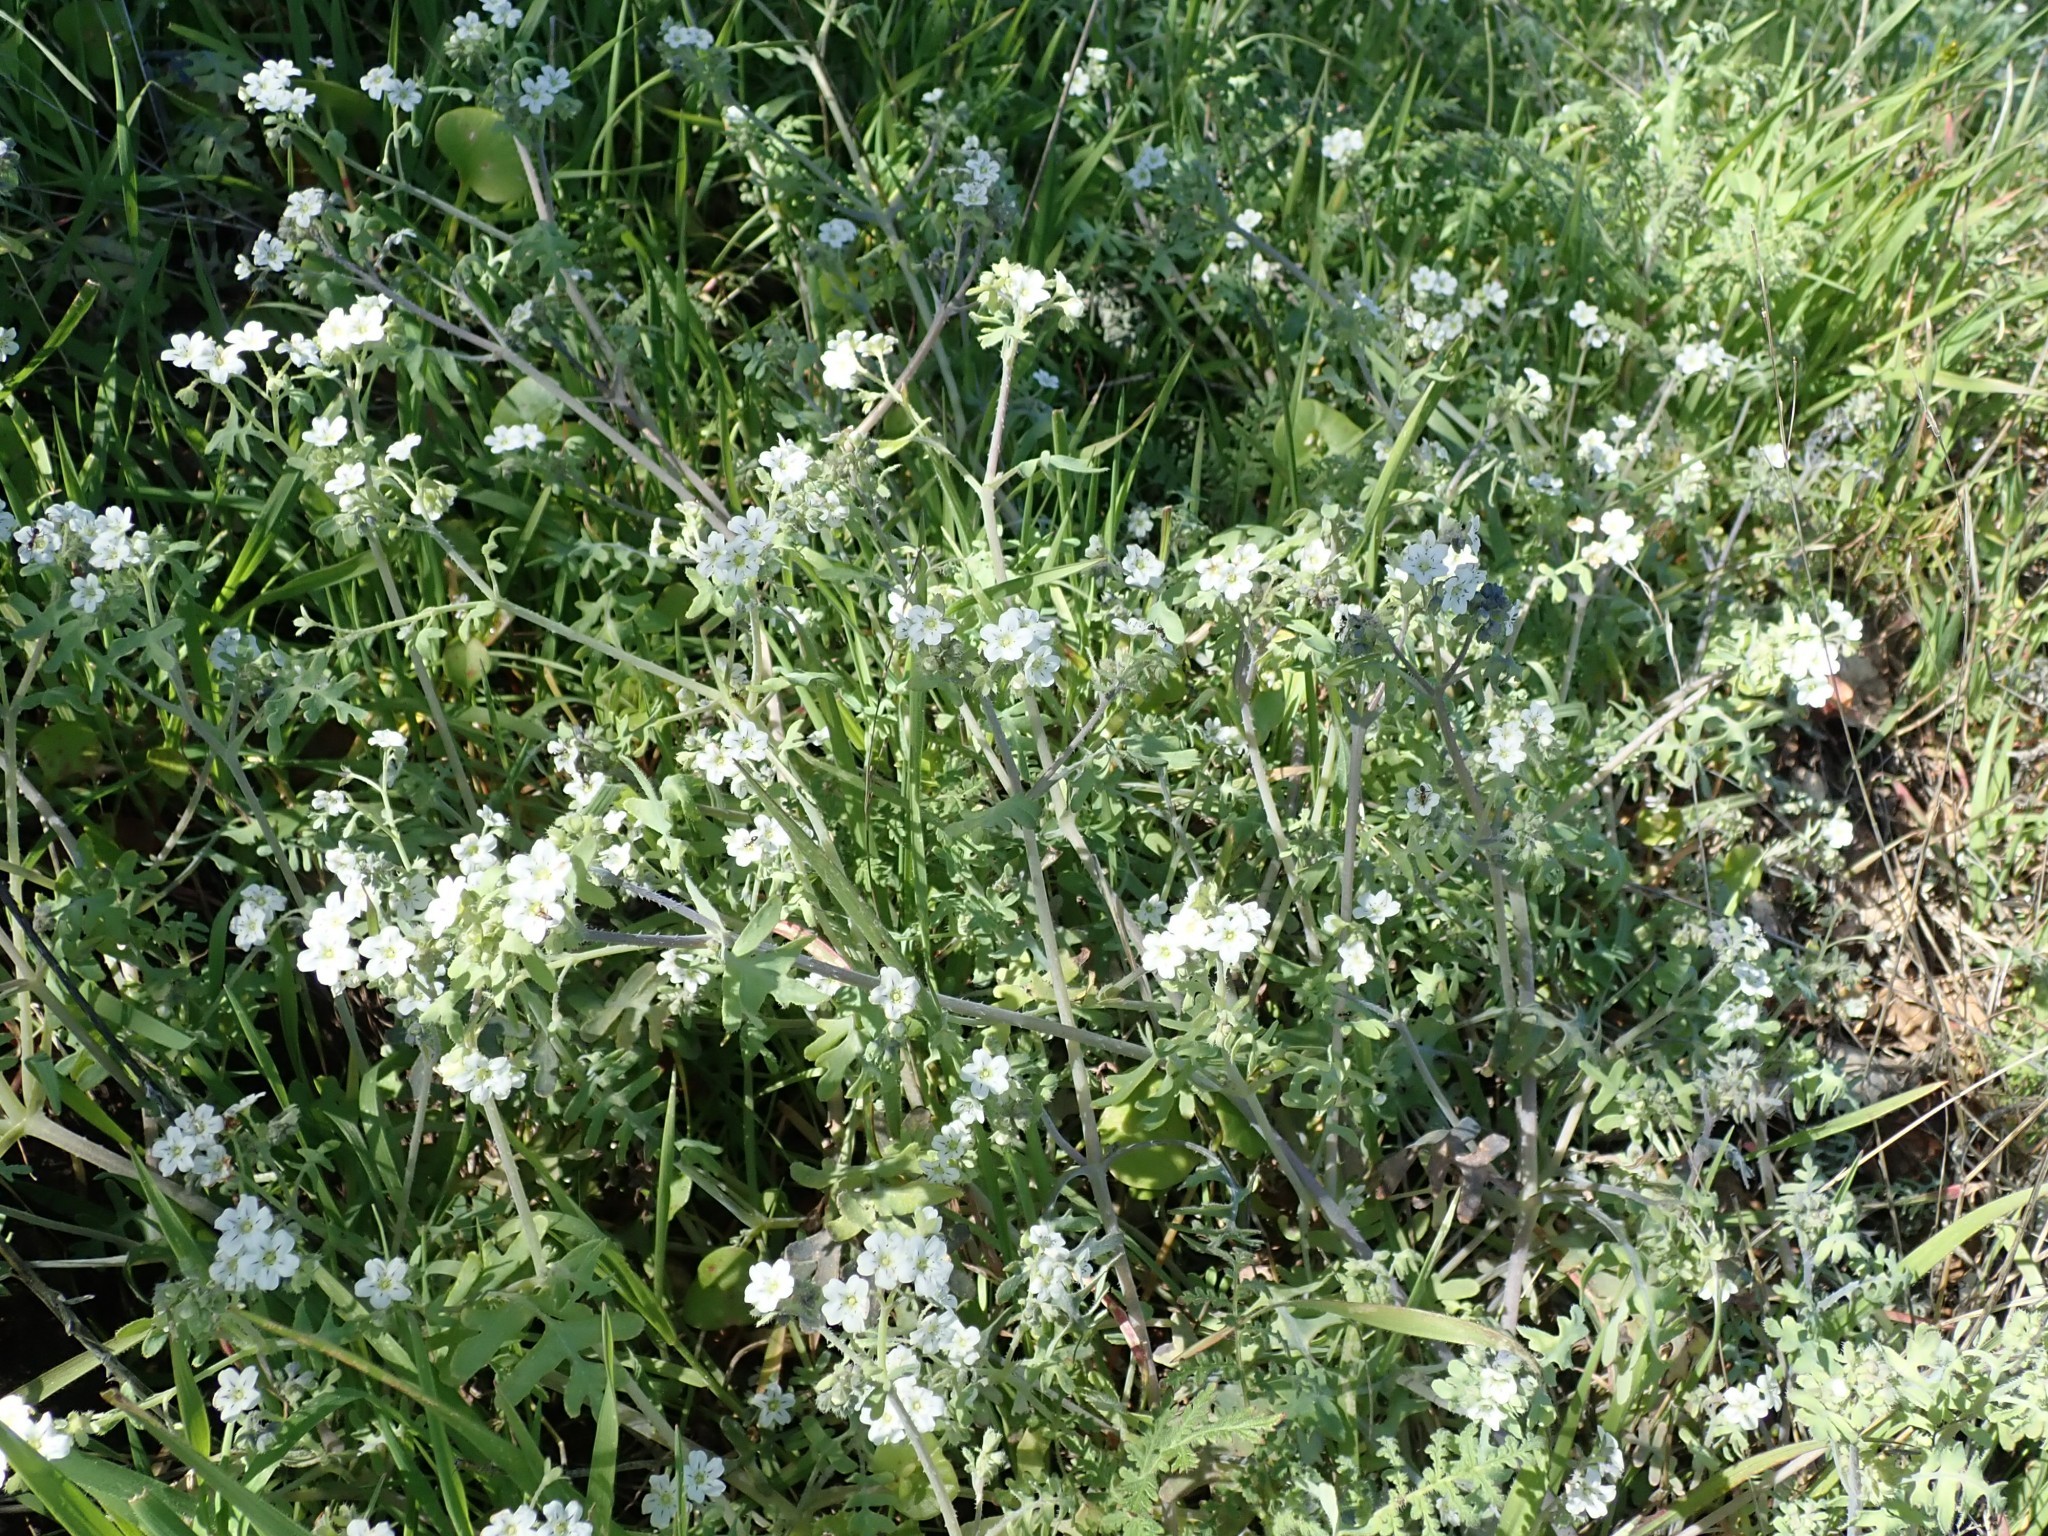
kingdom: Plantae
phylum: Tracheophyta
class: Magnoliopsida
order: Boraginales
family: Hydrophyllaceae
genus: Pholistoma
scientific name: Pholistoma membranaceum
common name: White fiesta-flower
